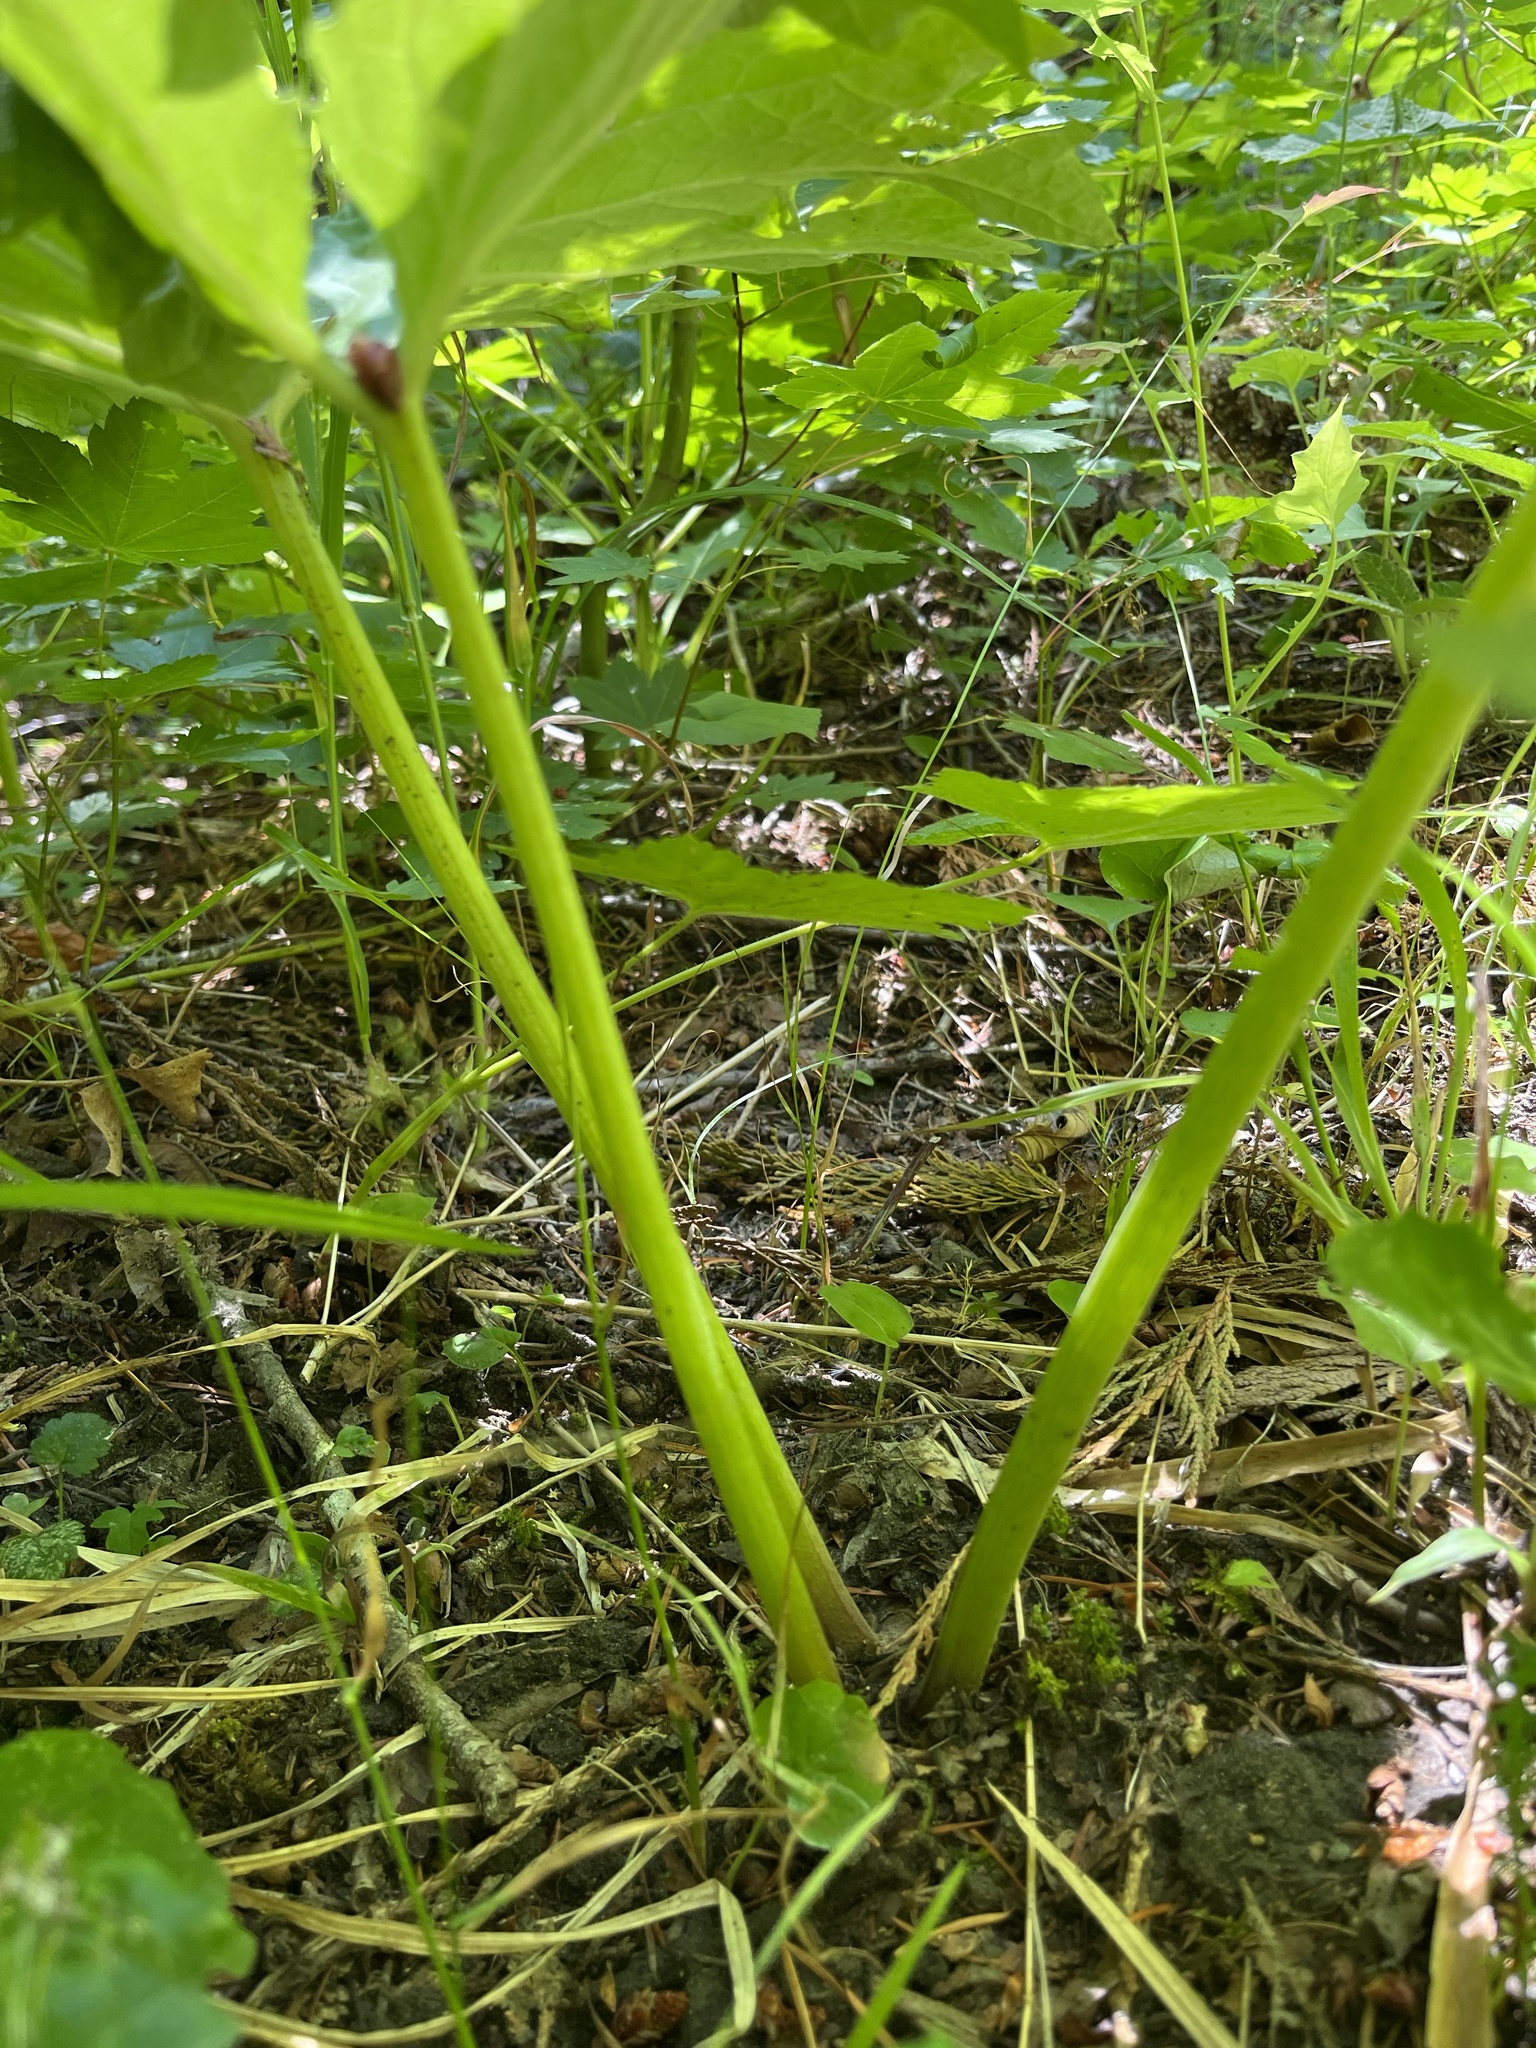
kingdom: Plantae
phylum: Tracheophyta
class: Magnoliopsida
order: Asterales
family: Asteraceae
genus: Petasites
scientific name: Petasites frigidus
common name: Arctic butterbur
